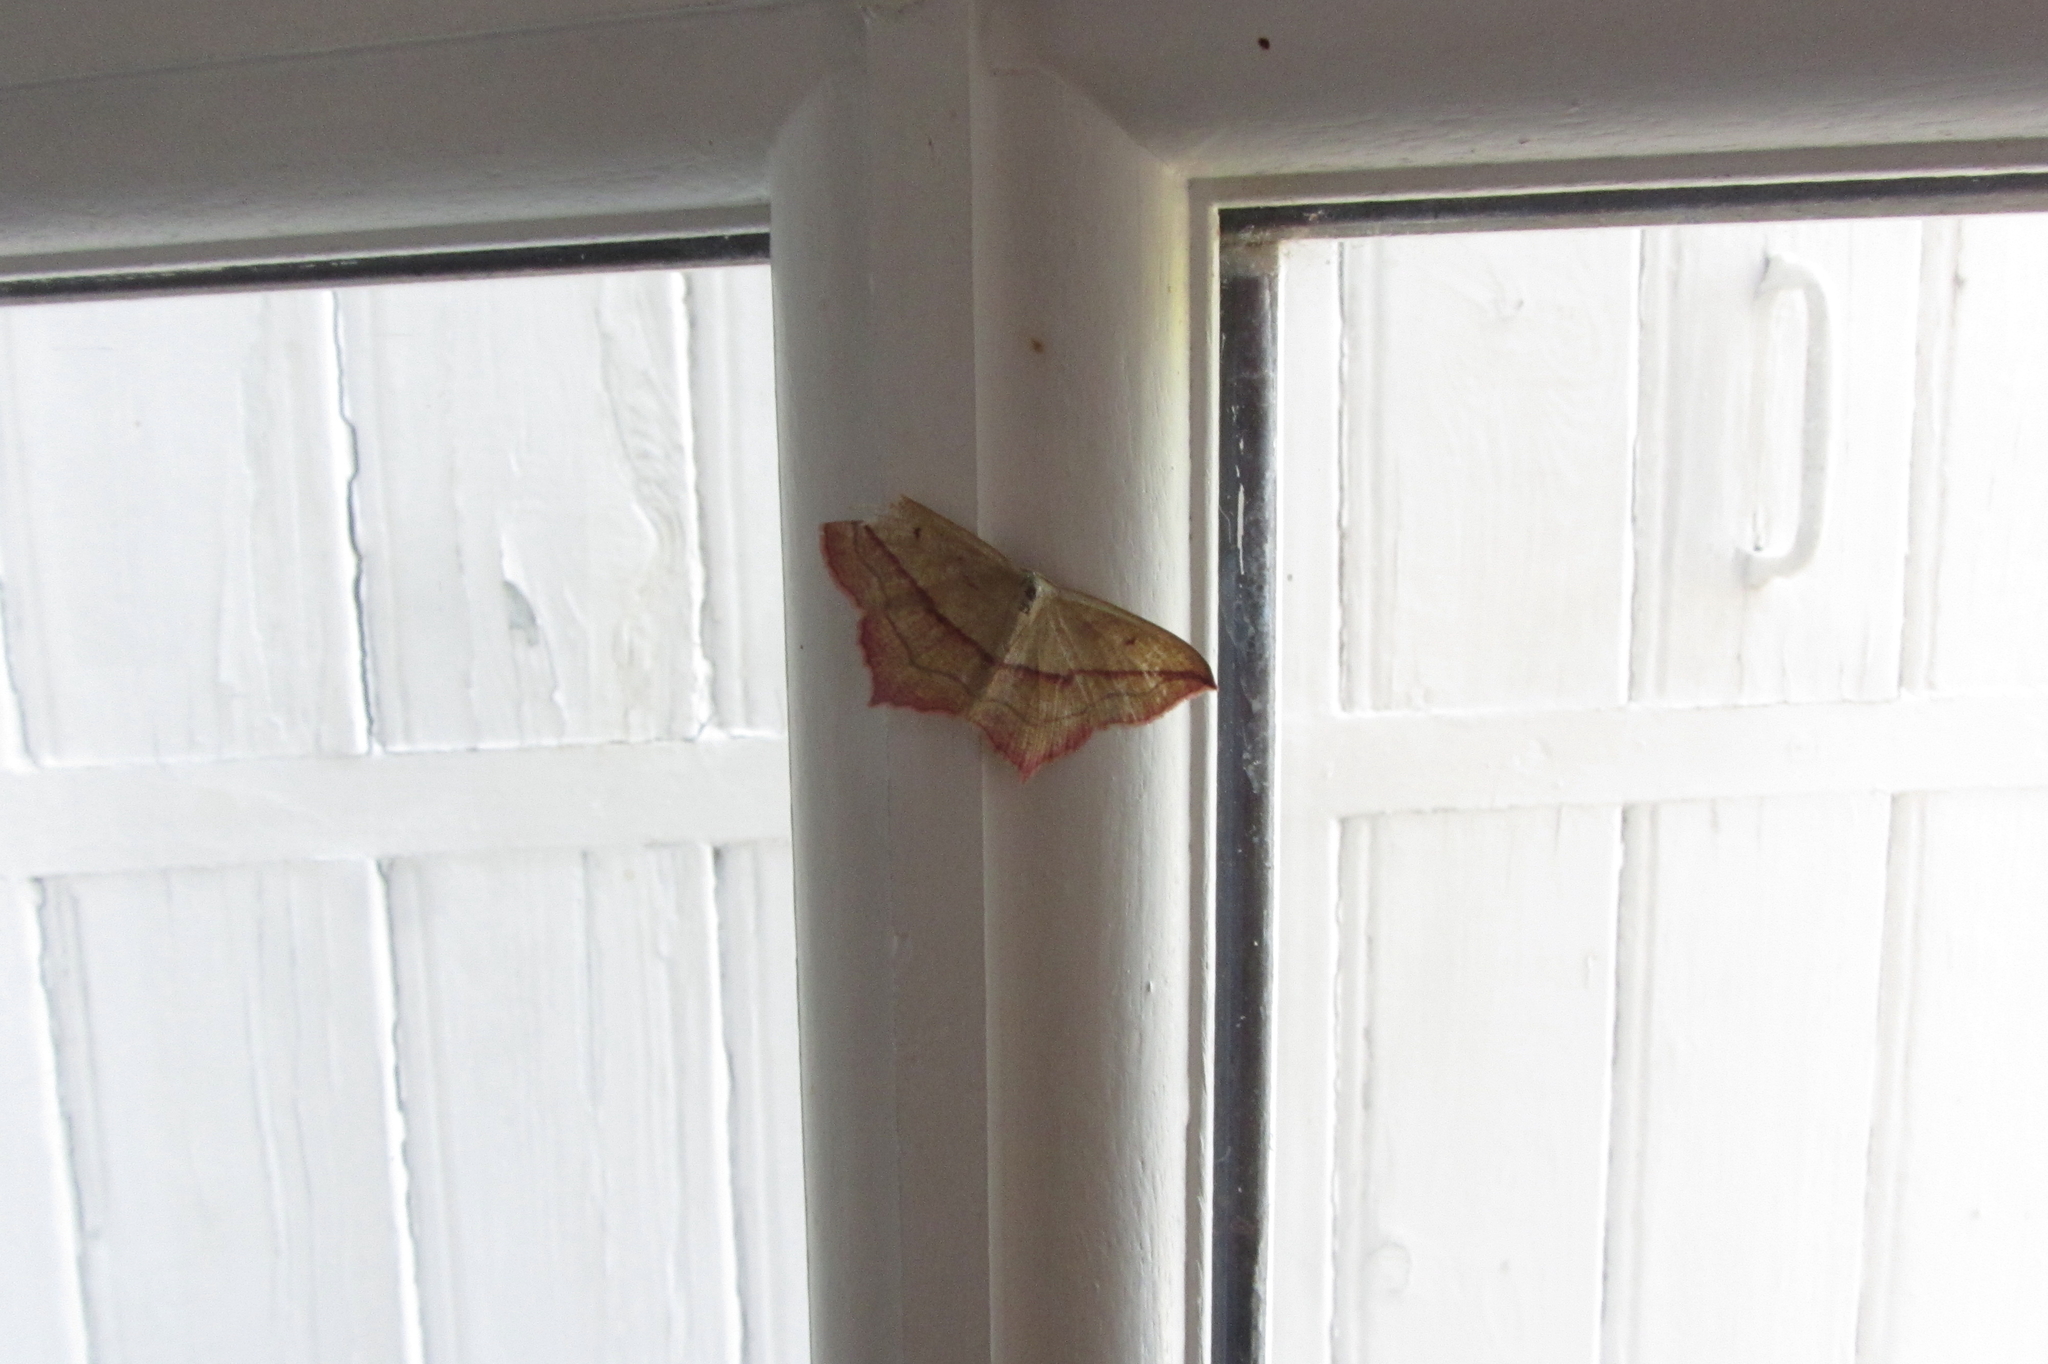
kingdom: Animalia
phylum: Arthropoda
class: Insecta
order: Lepidoptera
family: Geometridae
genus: Timandra
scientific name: Timandra comae
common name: Blood-vein
